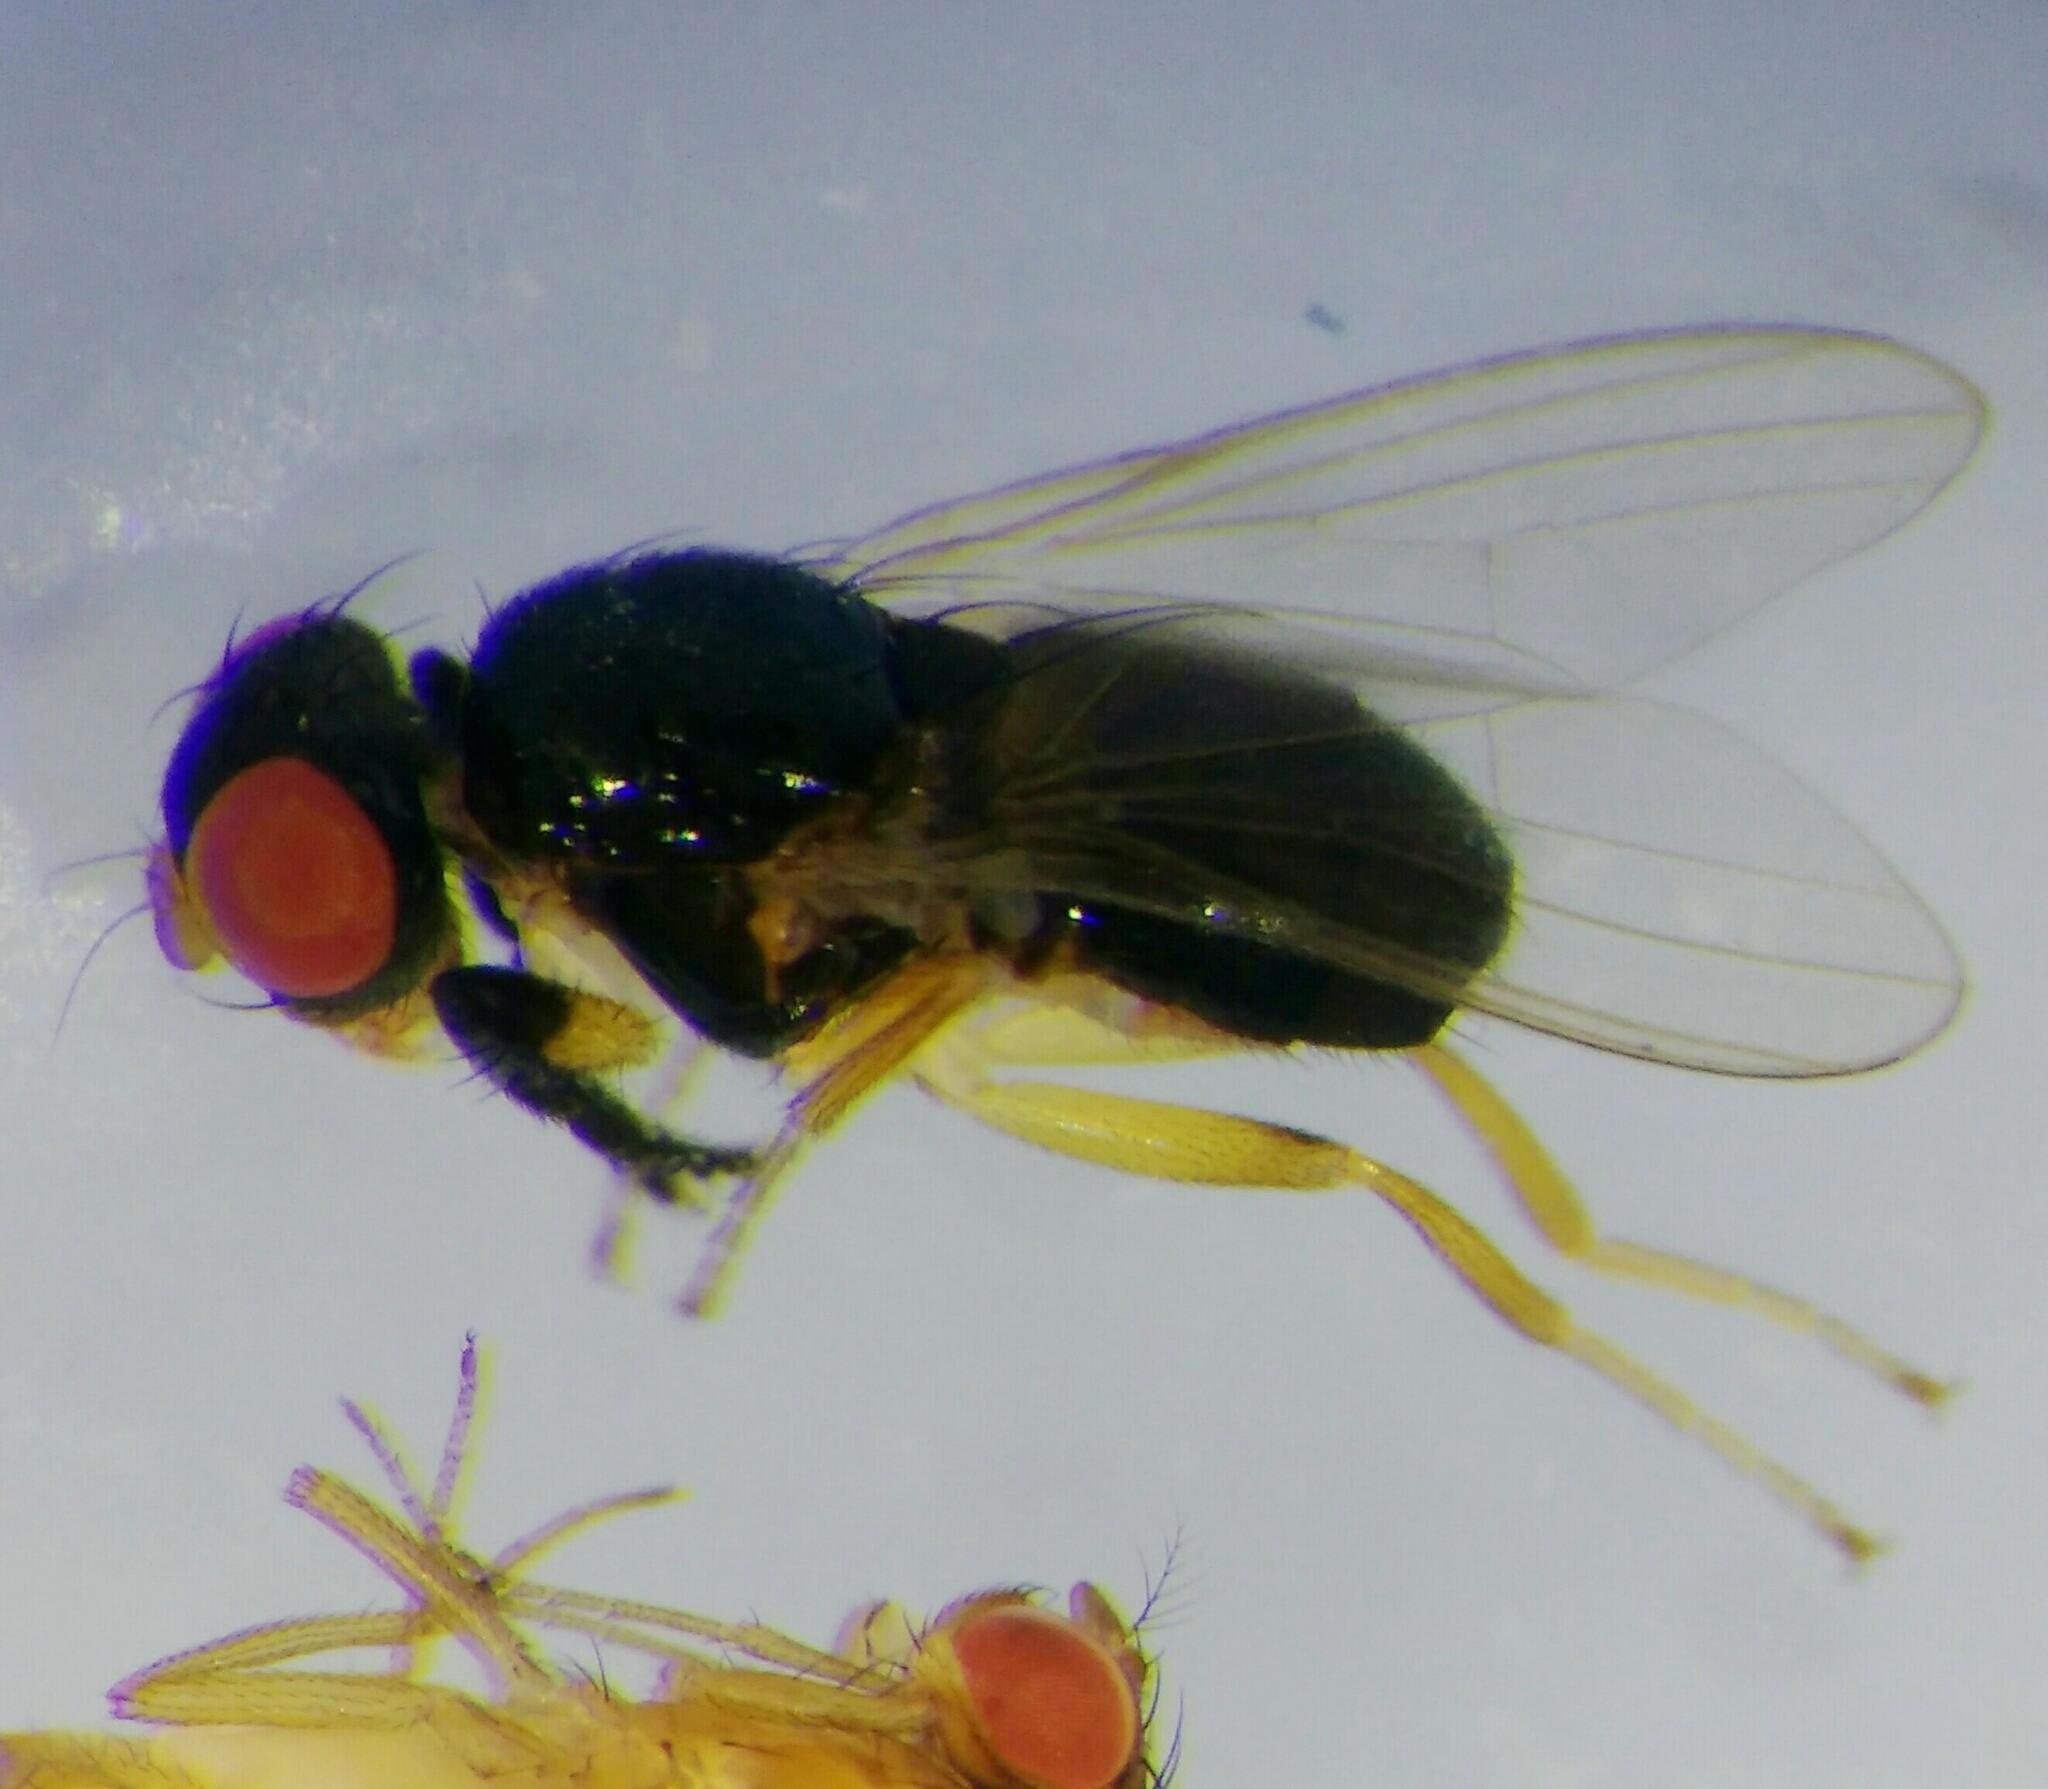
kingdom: Animalia
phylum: Arthropoda
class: Insecta
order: Diptera
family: Piophilidae
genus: Protopiophila
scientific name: Protopiophila latipes
